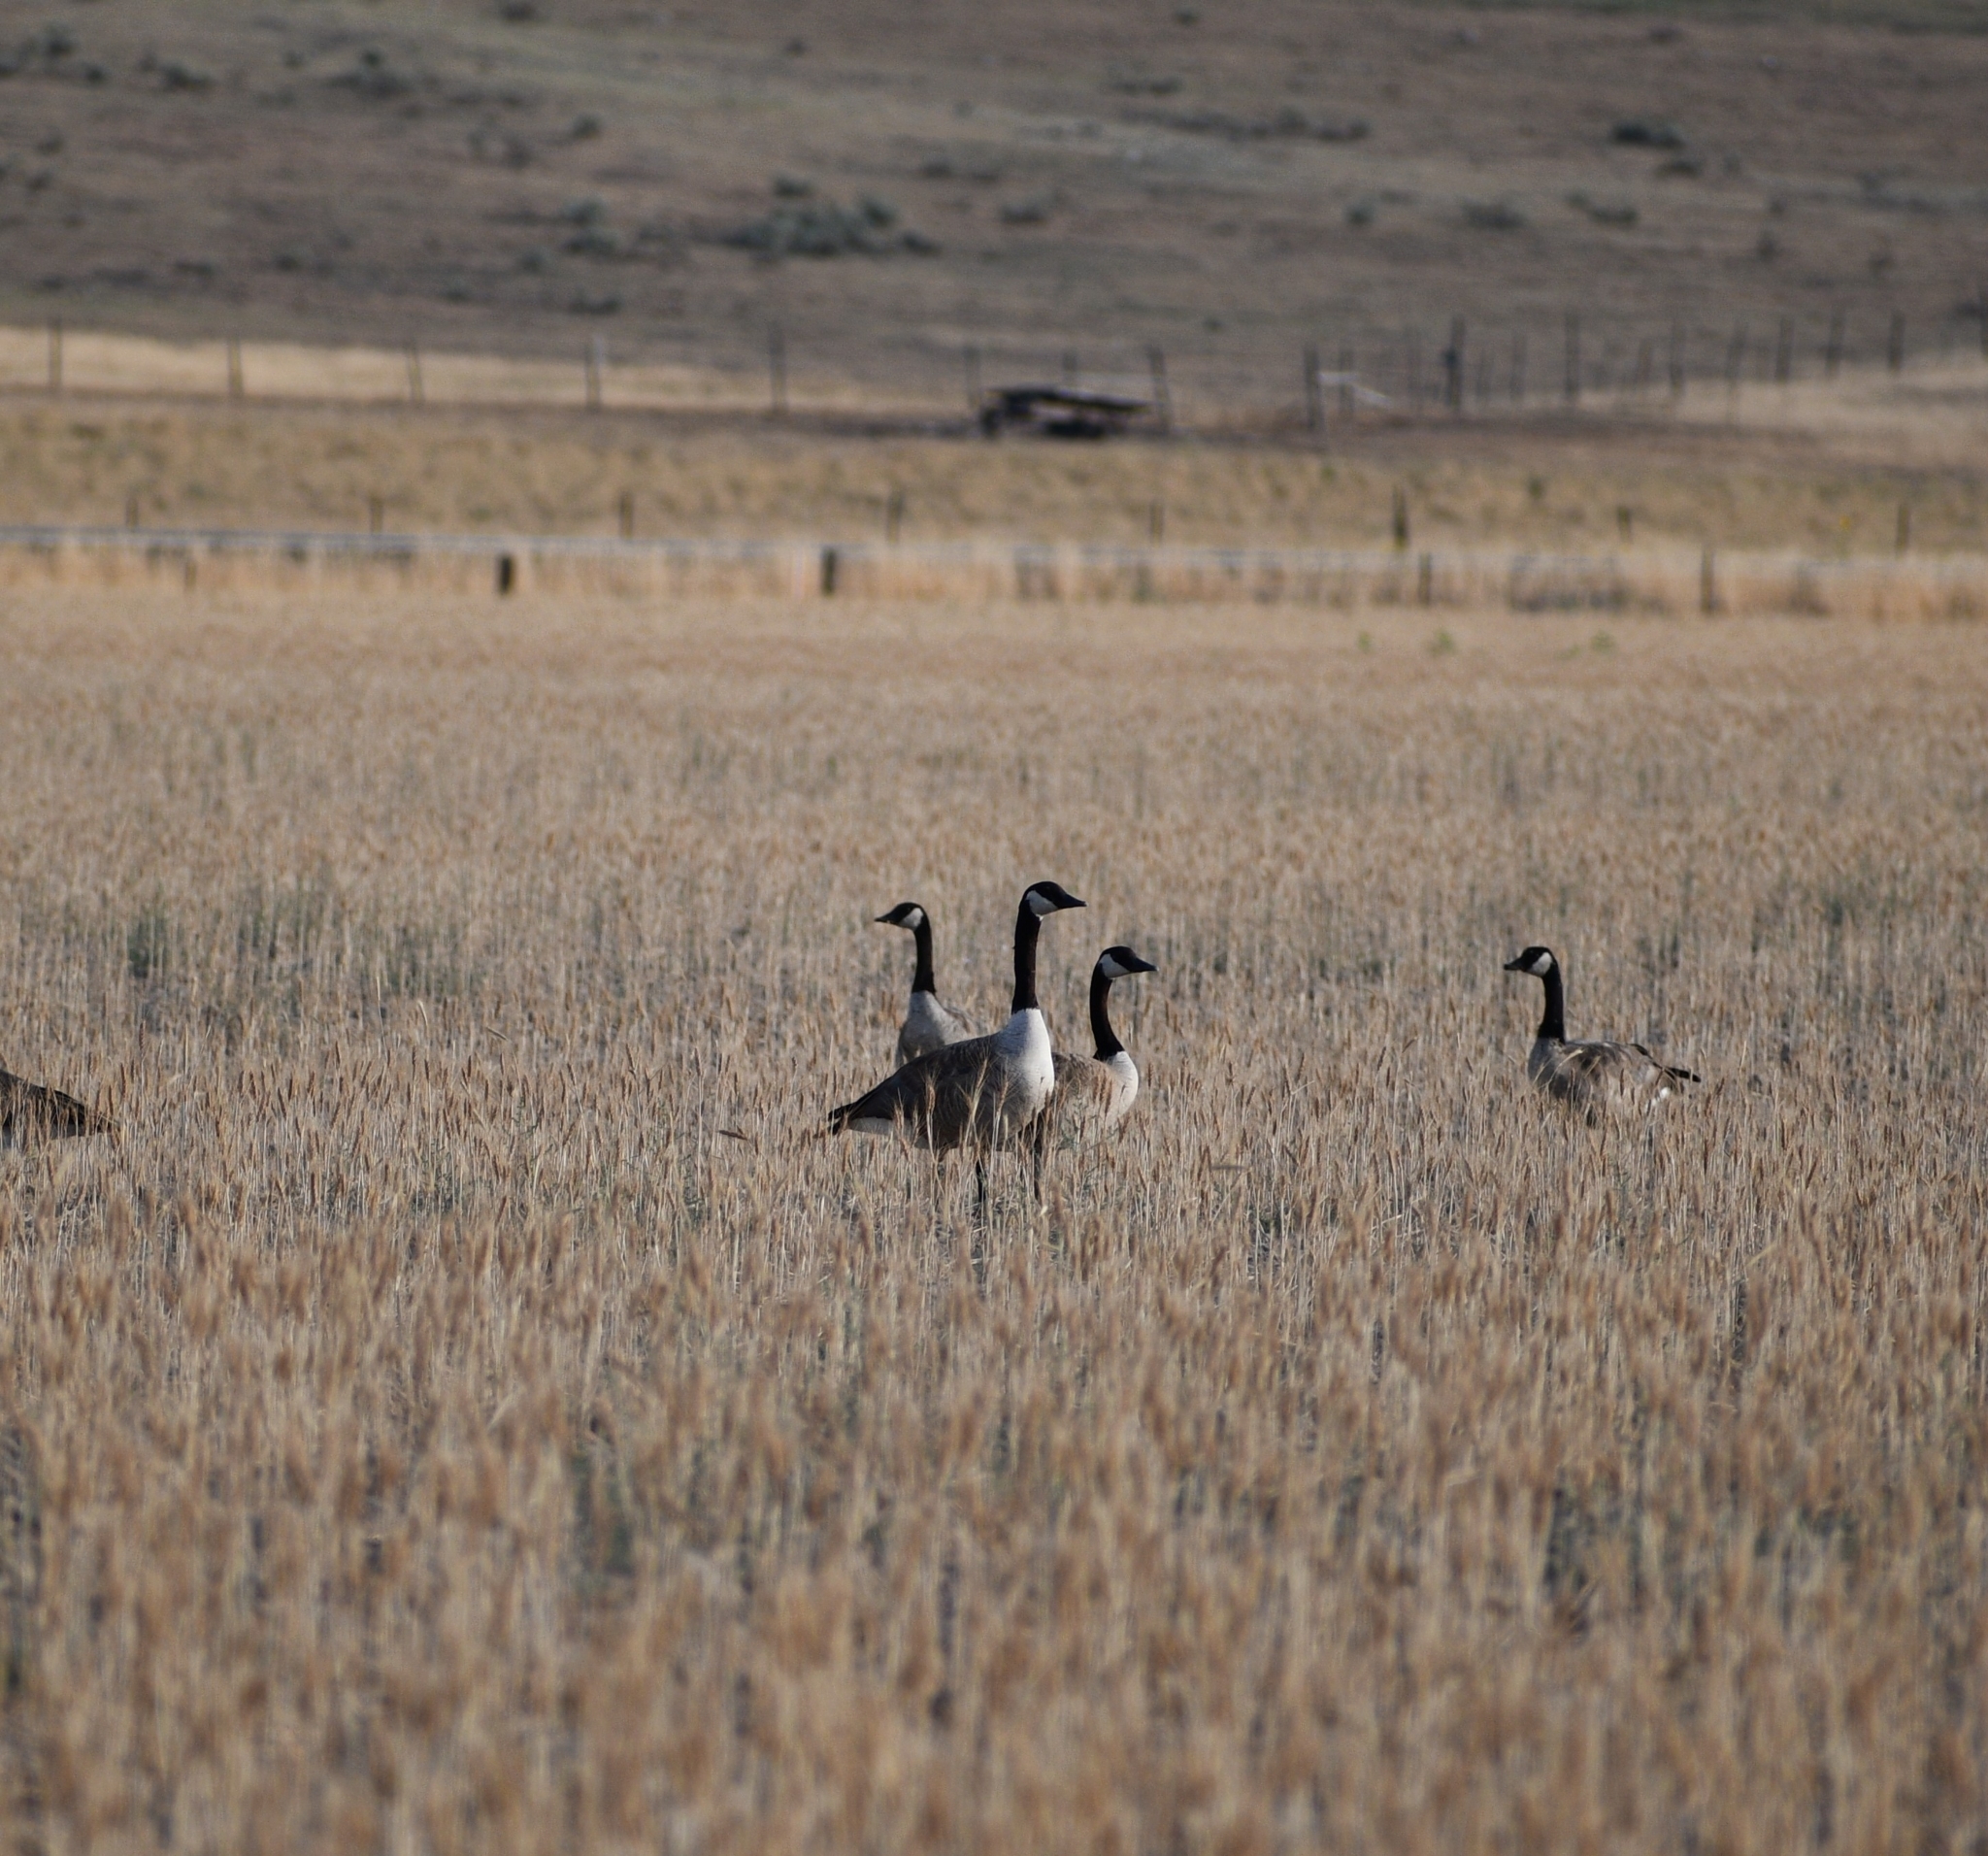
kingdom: Animalia
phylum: Chordata
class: Aves
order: Anseriformes
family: Anatidae
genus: Branta
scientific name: Branta canadensis
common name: Canada goose
